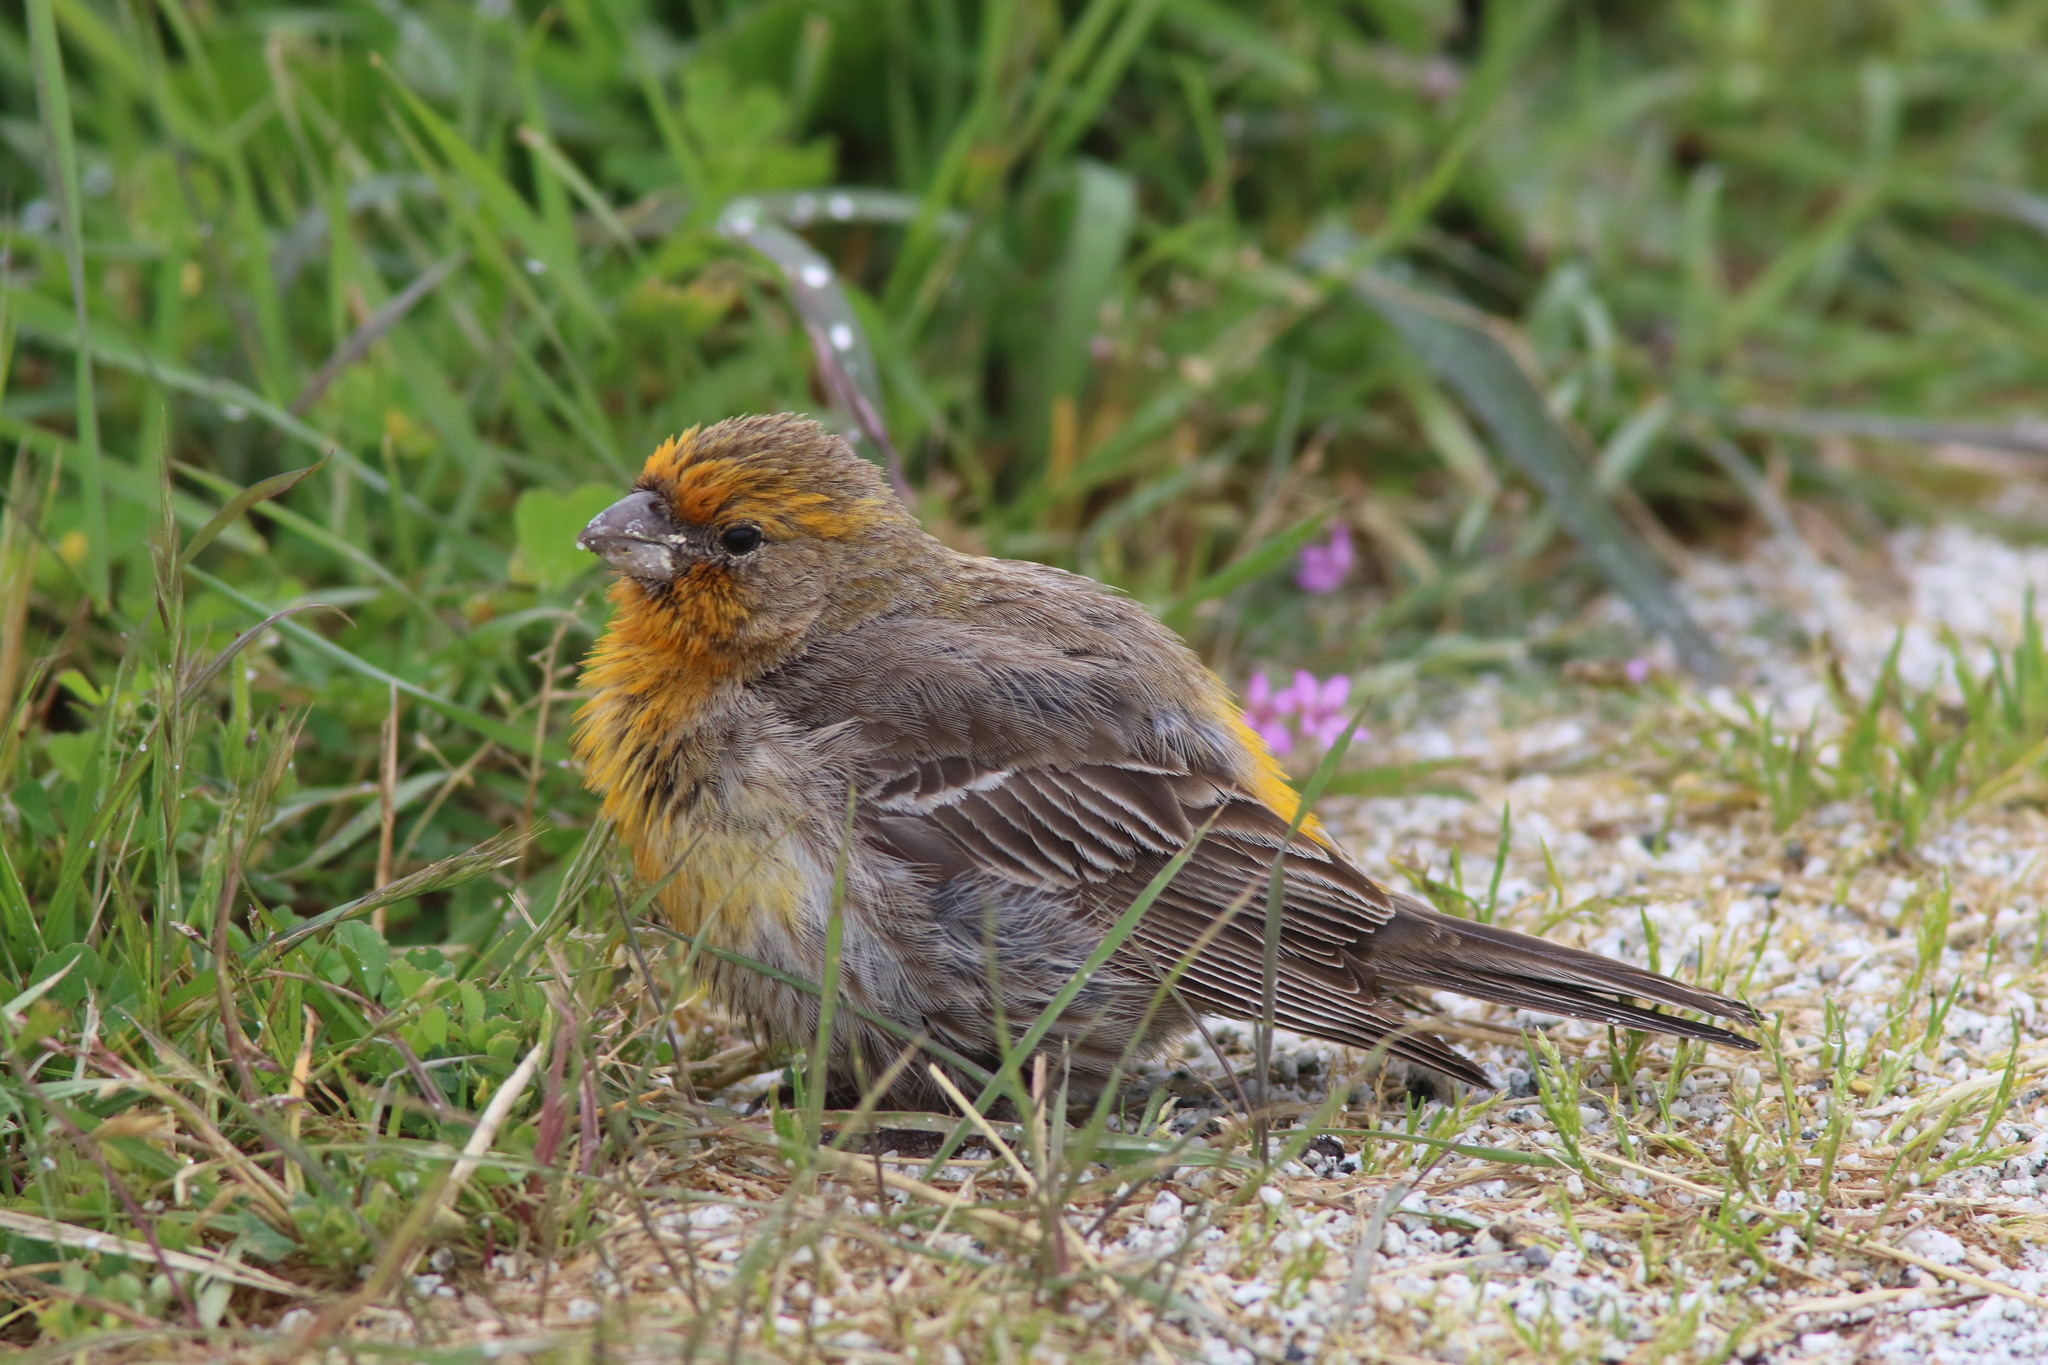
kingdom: Animalia
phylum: Chordata
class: Aves
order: Passeriformes
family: Fringillidae
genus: Haemorhous
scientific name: Haemorhous mexicanus
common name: House finch
